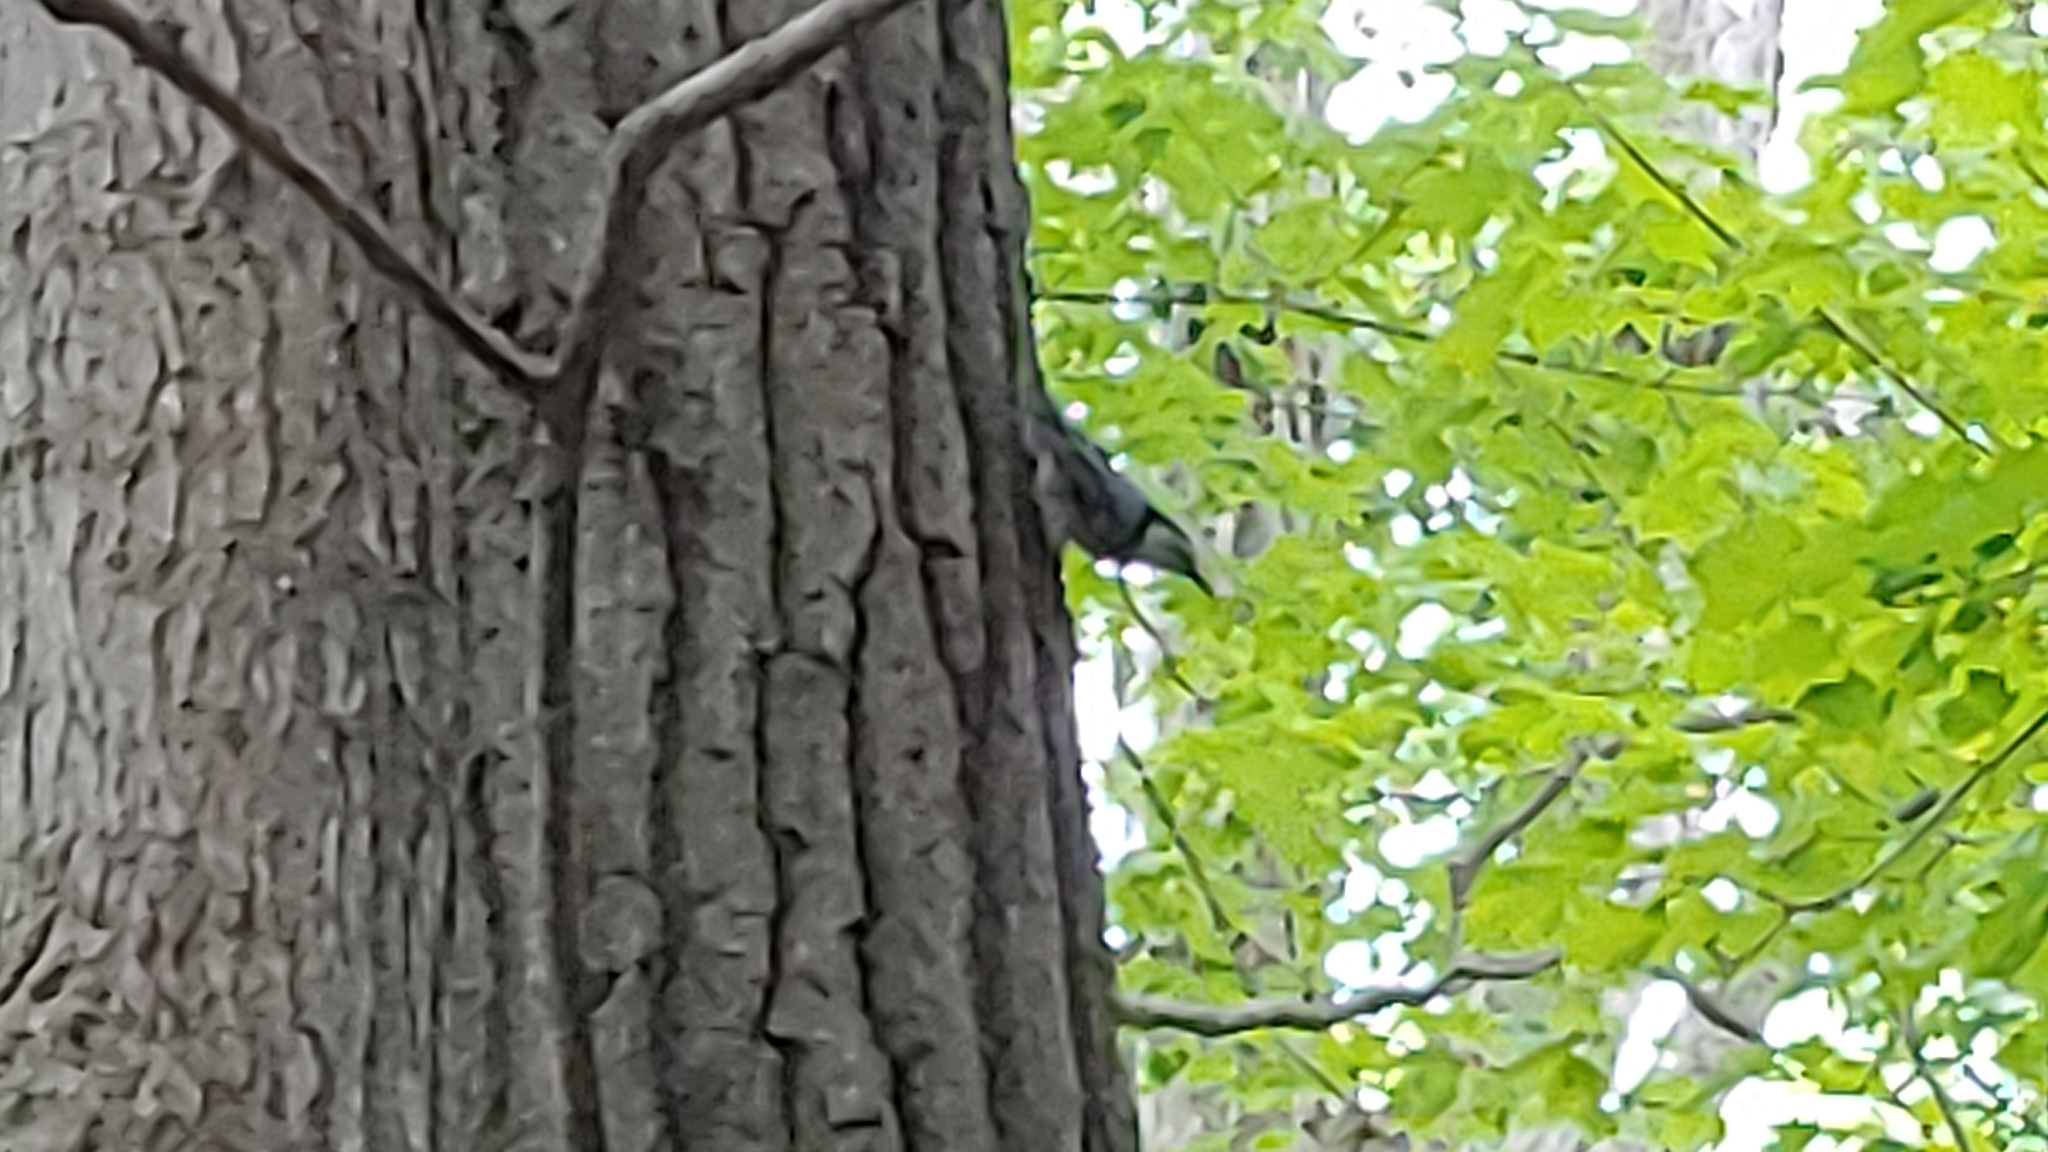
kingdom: Animalia
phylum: Chordata
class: Aves
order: Passeriformes
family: Sittidae
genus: Sitta
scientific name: Sitta carolinensis
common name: White-breasted nuthatch
